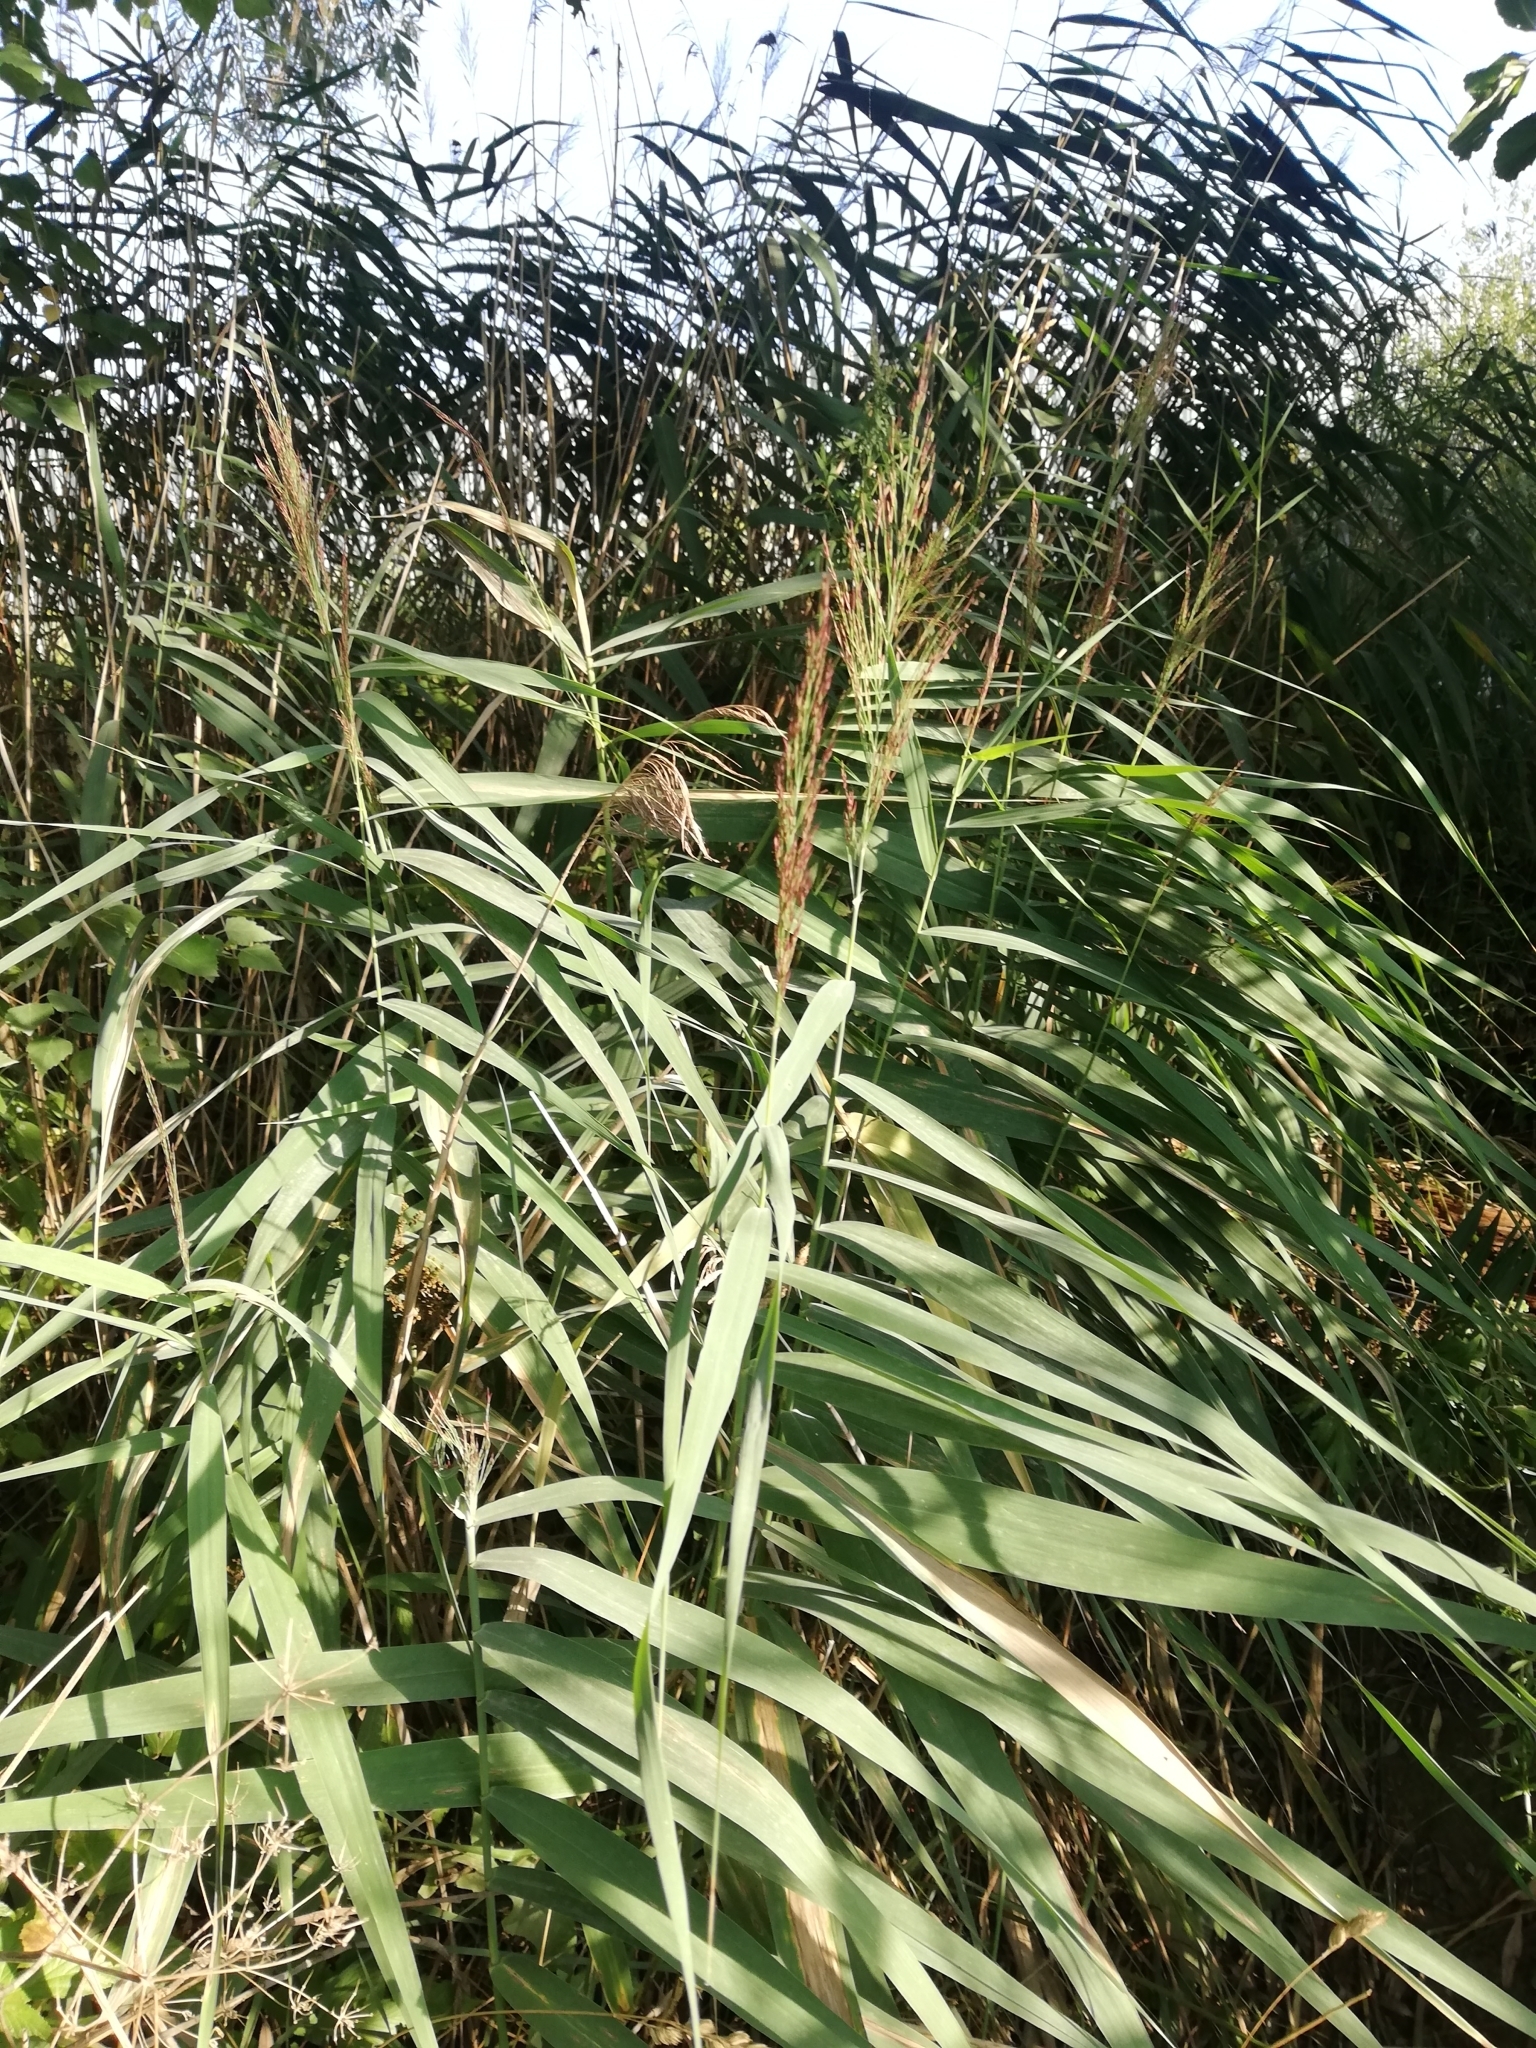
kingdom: Plantae
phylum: Tracheophyta
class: Liliopsida
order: Poales
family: Poaceae
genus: Phragmites
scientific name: Phragmites australis
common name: Common reed
